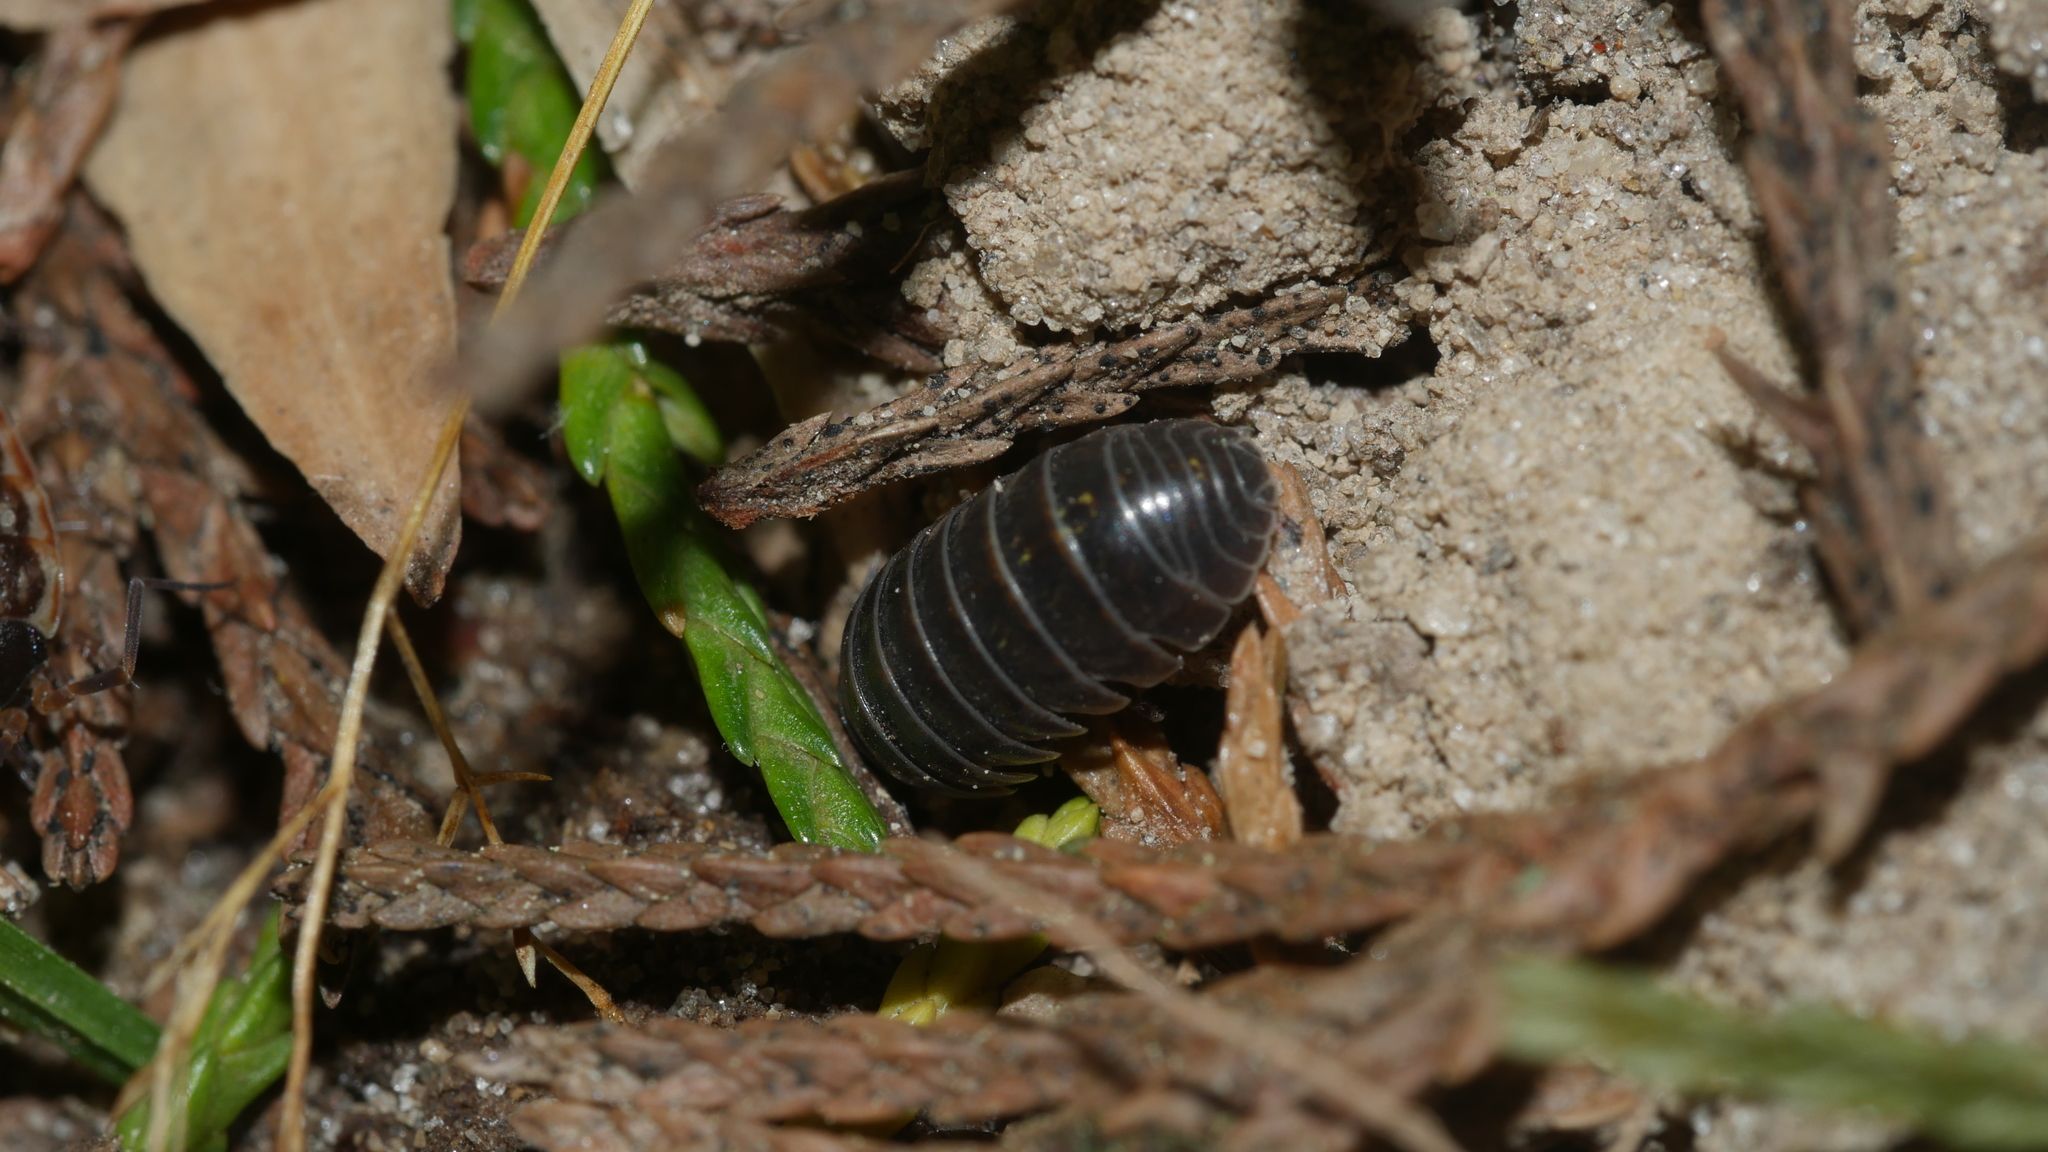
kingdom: Animalia
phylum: Arthropoda
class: Malacostraca
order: Isopoda
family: Armadillidiidae
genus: Armadillidium
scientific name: Armadillidium vulgare
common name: Common pill woodlouse
